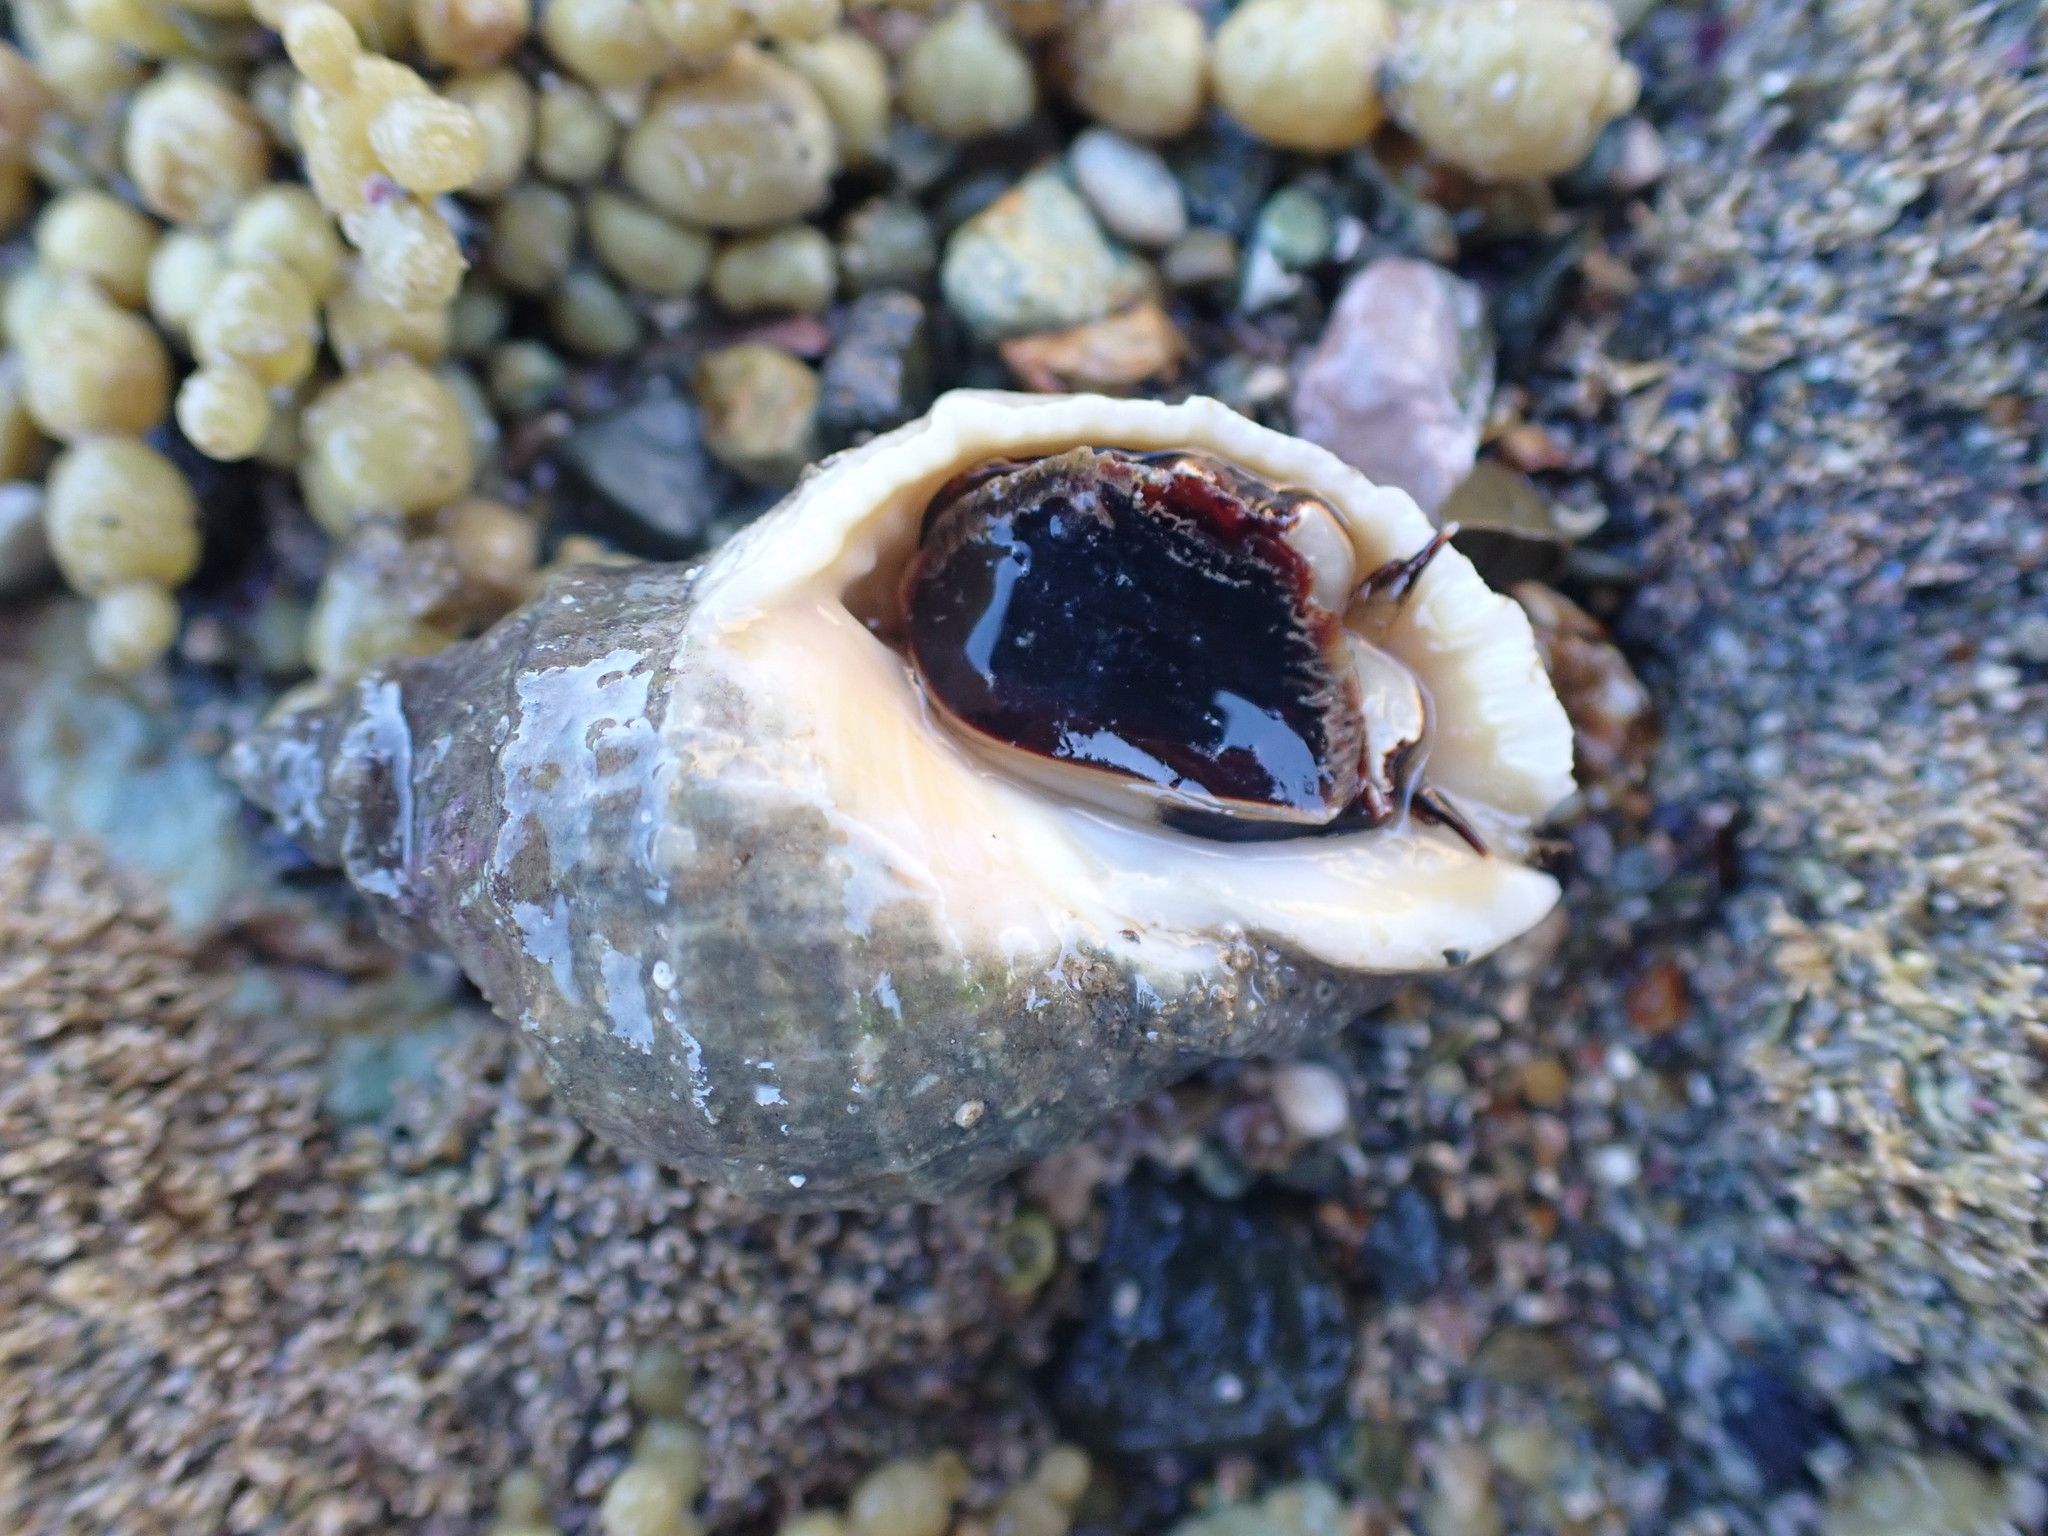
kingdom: Animalia
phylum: Mollusca
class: Gastropoda
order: Neogastropoda
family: Muricidae
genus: Dicathais
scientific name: Dicathais orbita
